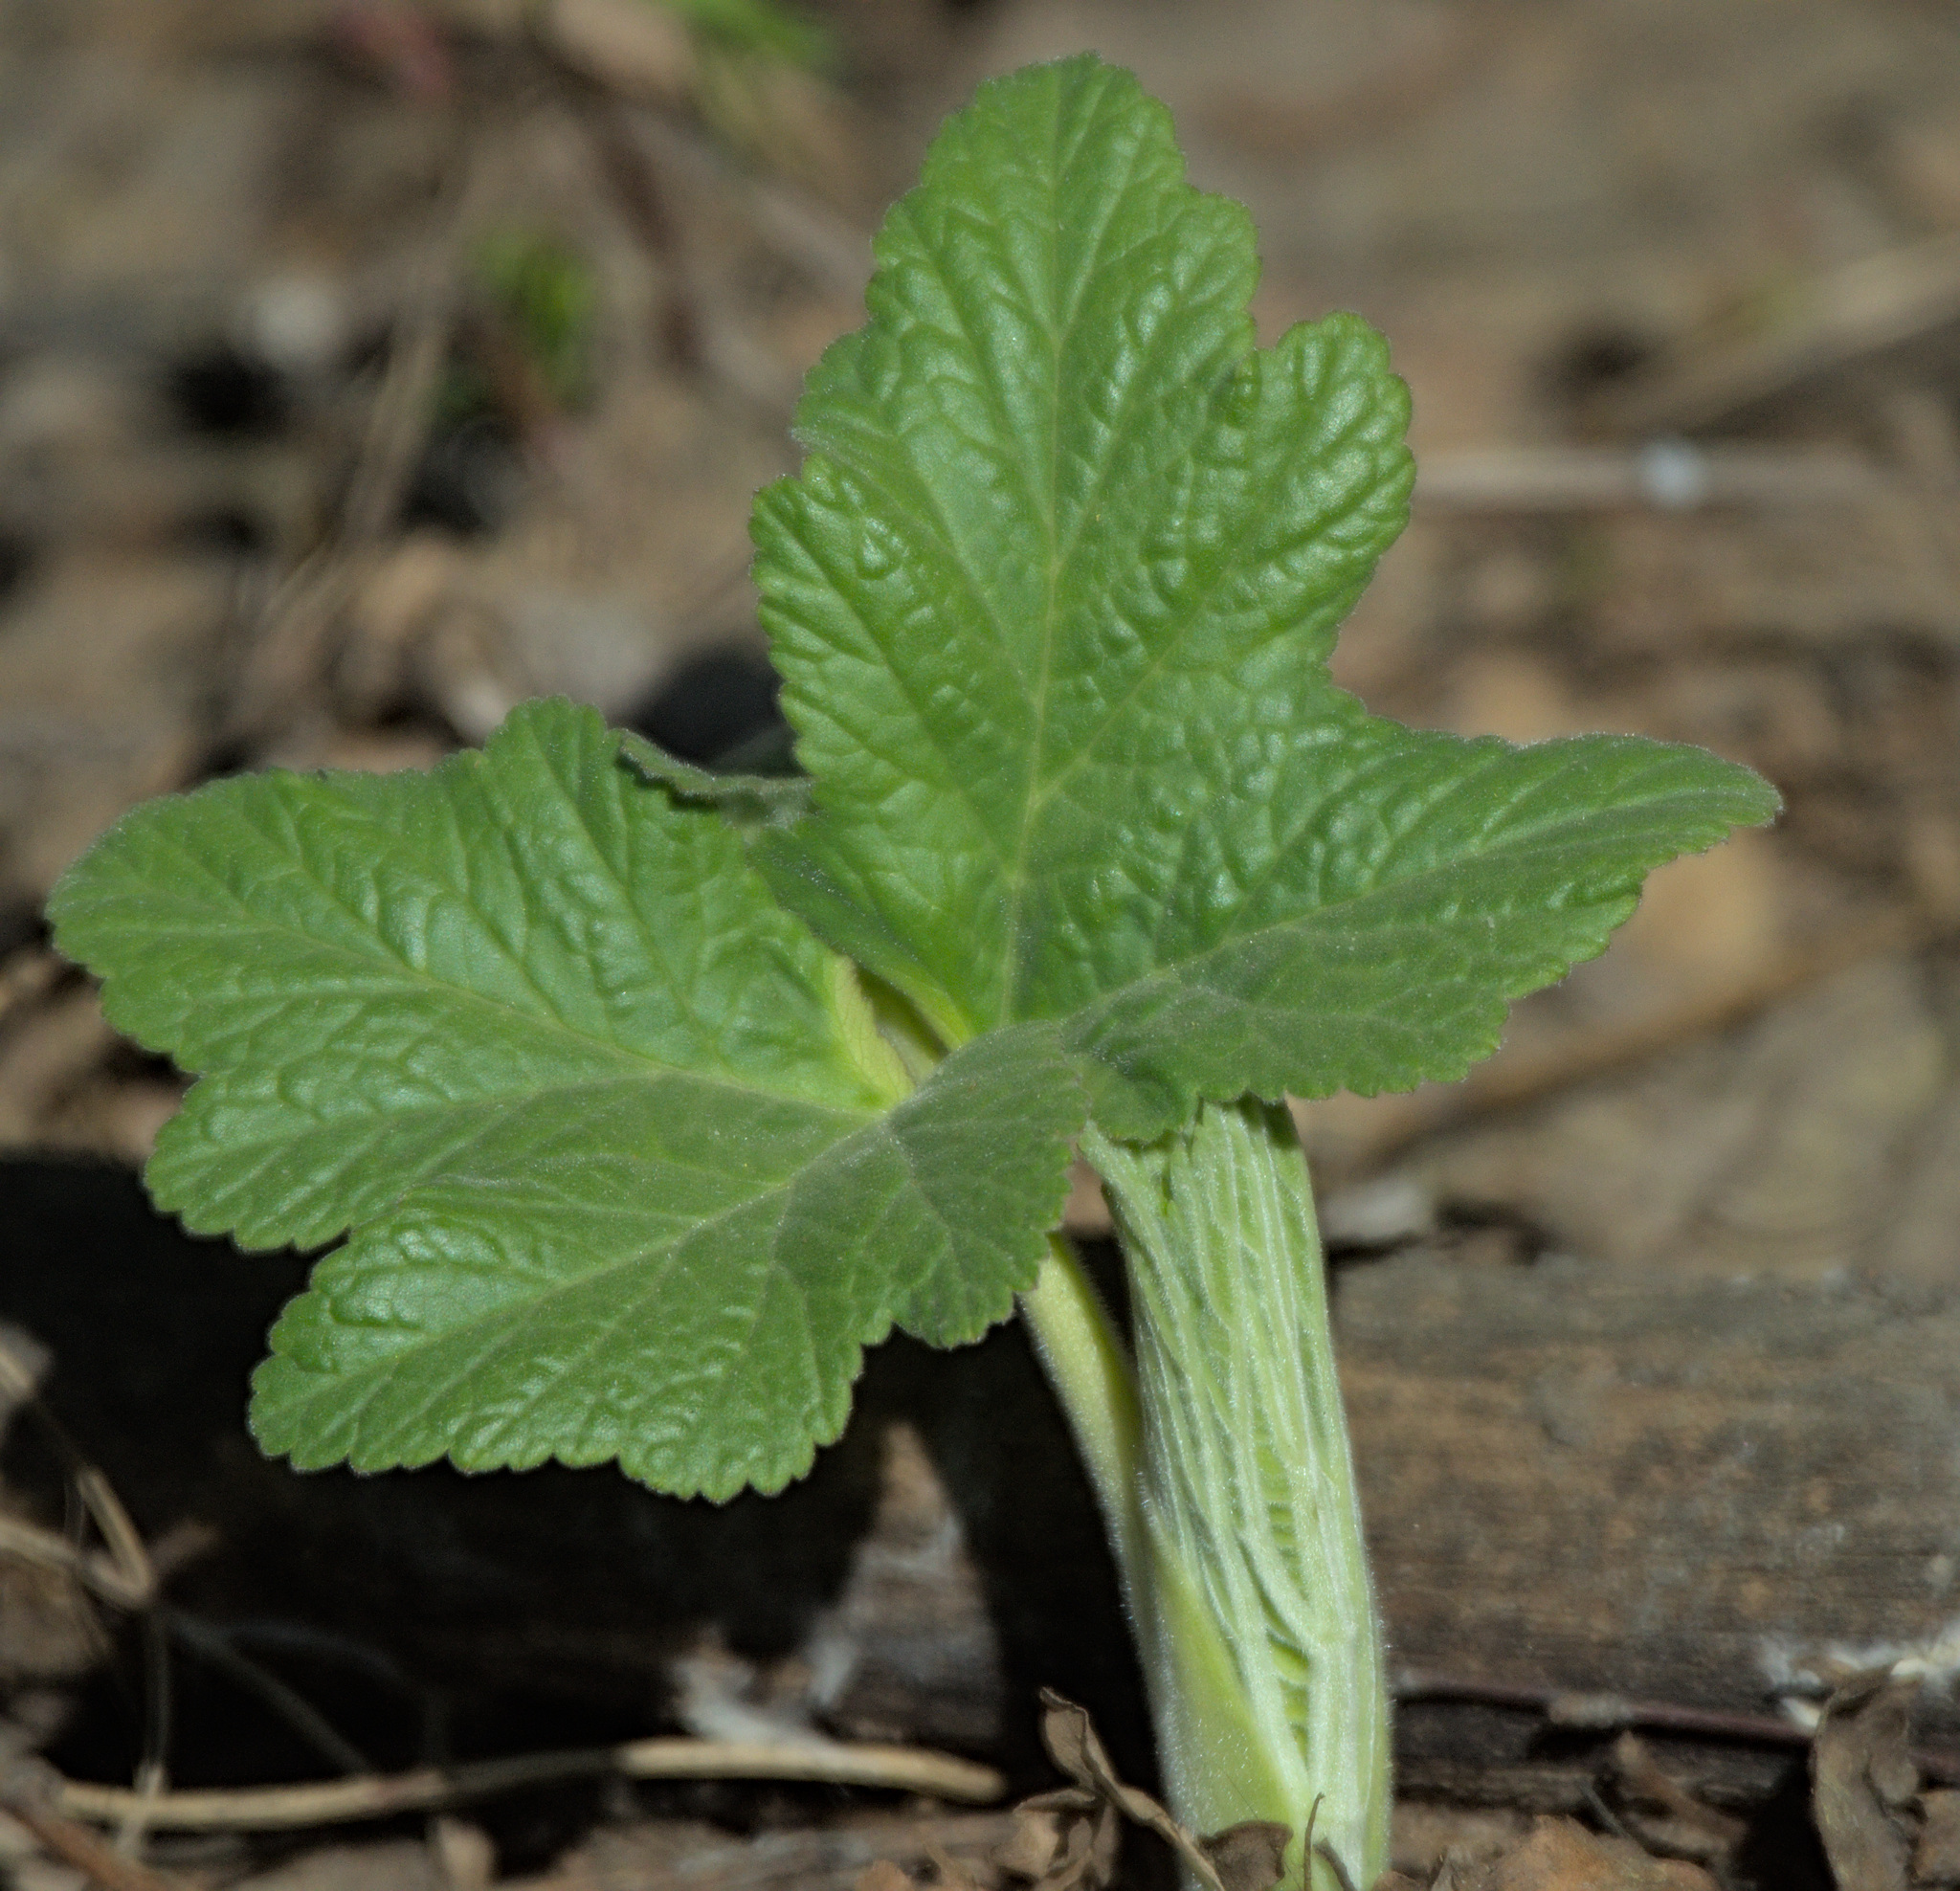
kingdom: Plantae
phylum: Tracheophyta
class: Magnoliopsida
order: Apiales
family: Apiaceae
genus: Heracleum
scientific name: Heracleum dissectum
